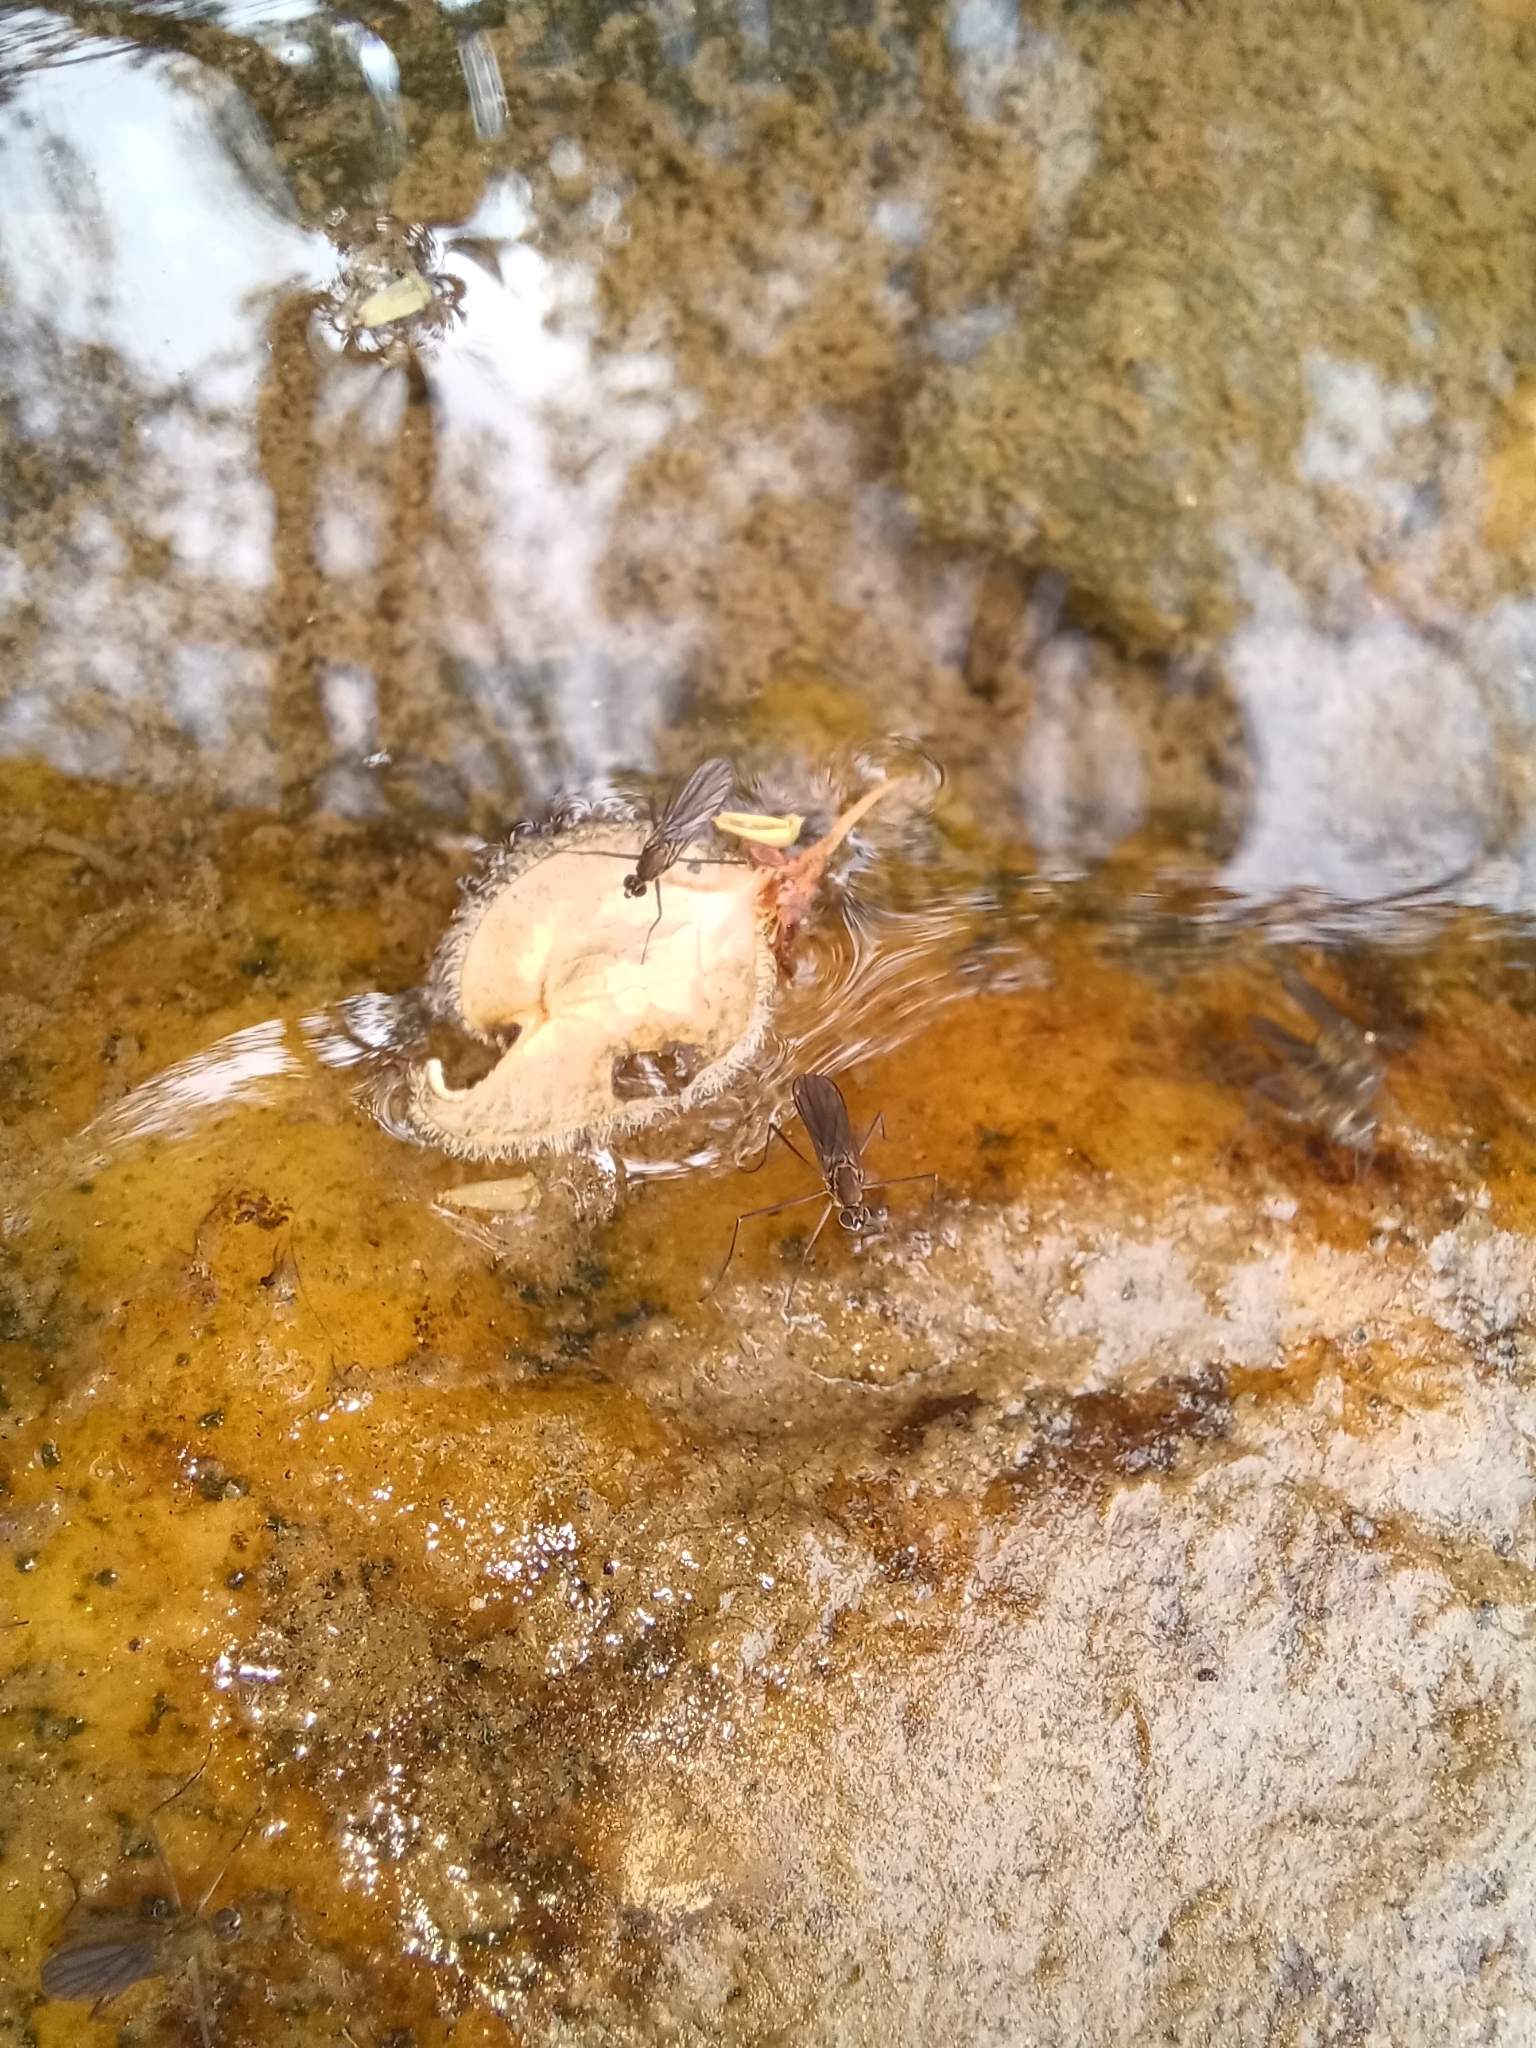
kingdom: Animalia
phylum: Arthropoda
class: Insecta
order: Diptera
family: Empididae
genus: Trichoclinocera
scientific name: Trichoclinocera pectinifemur
